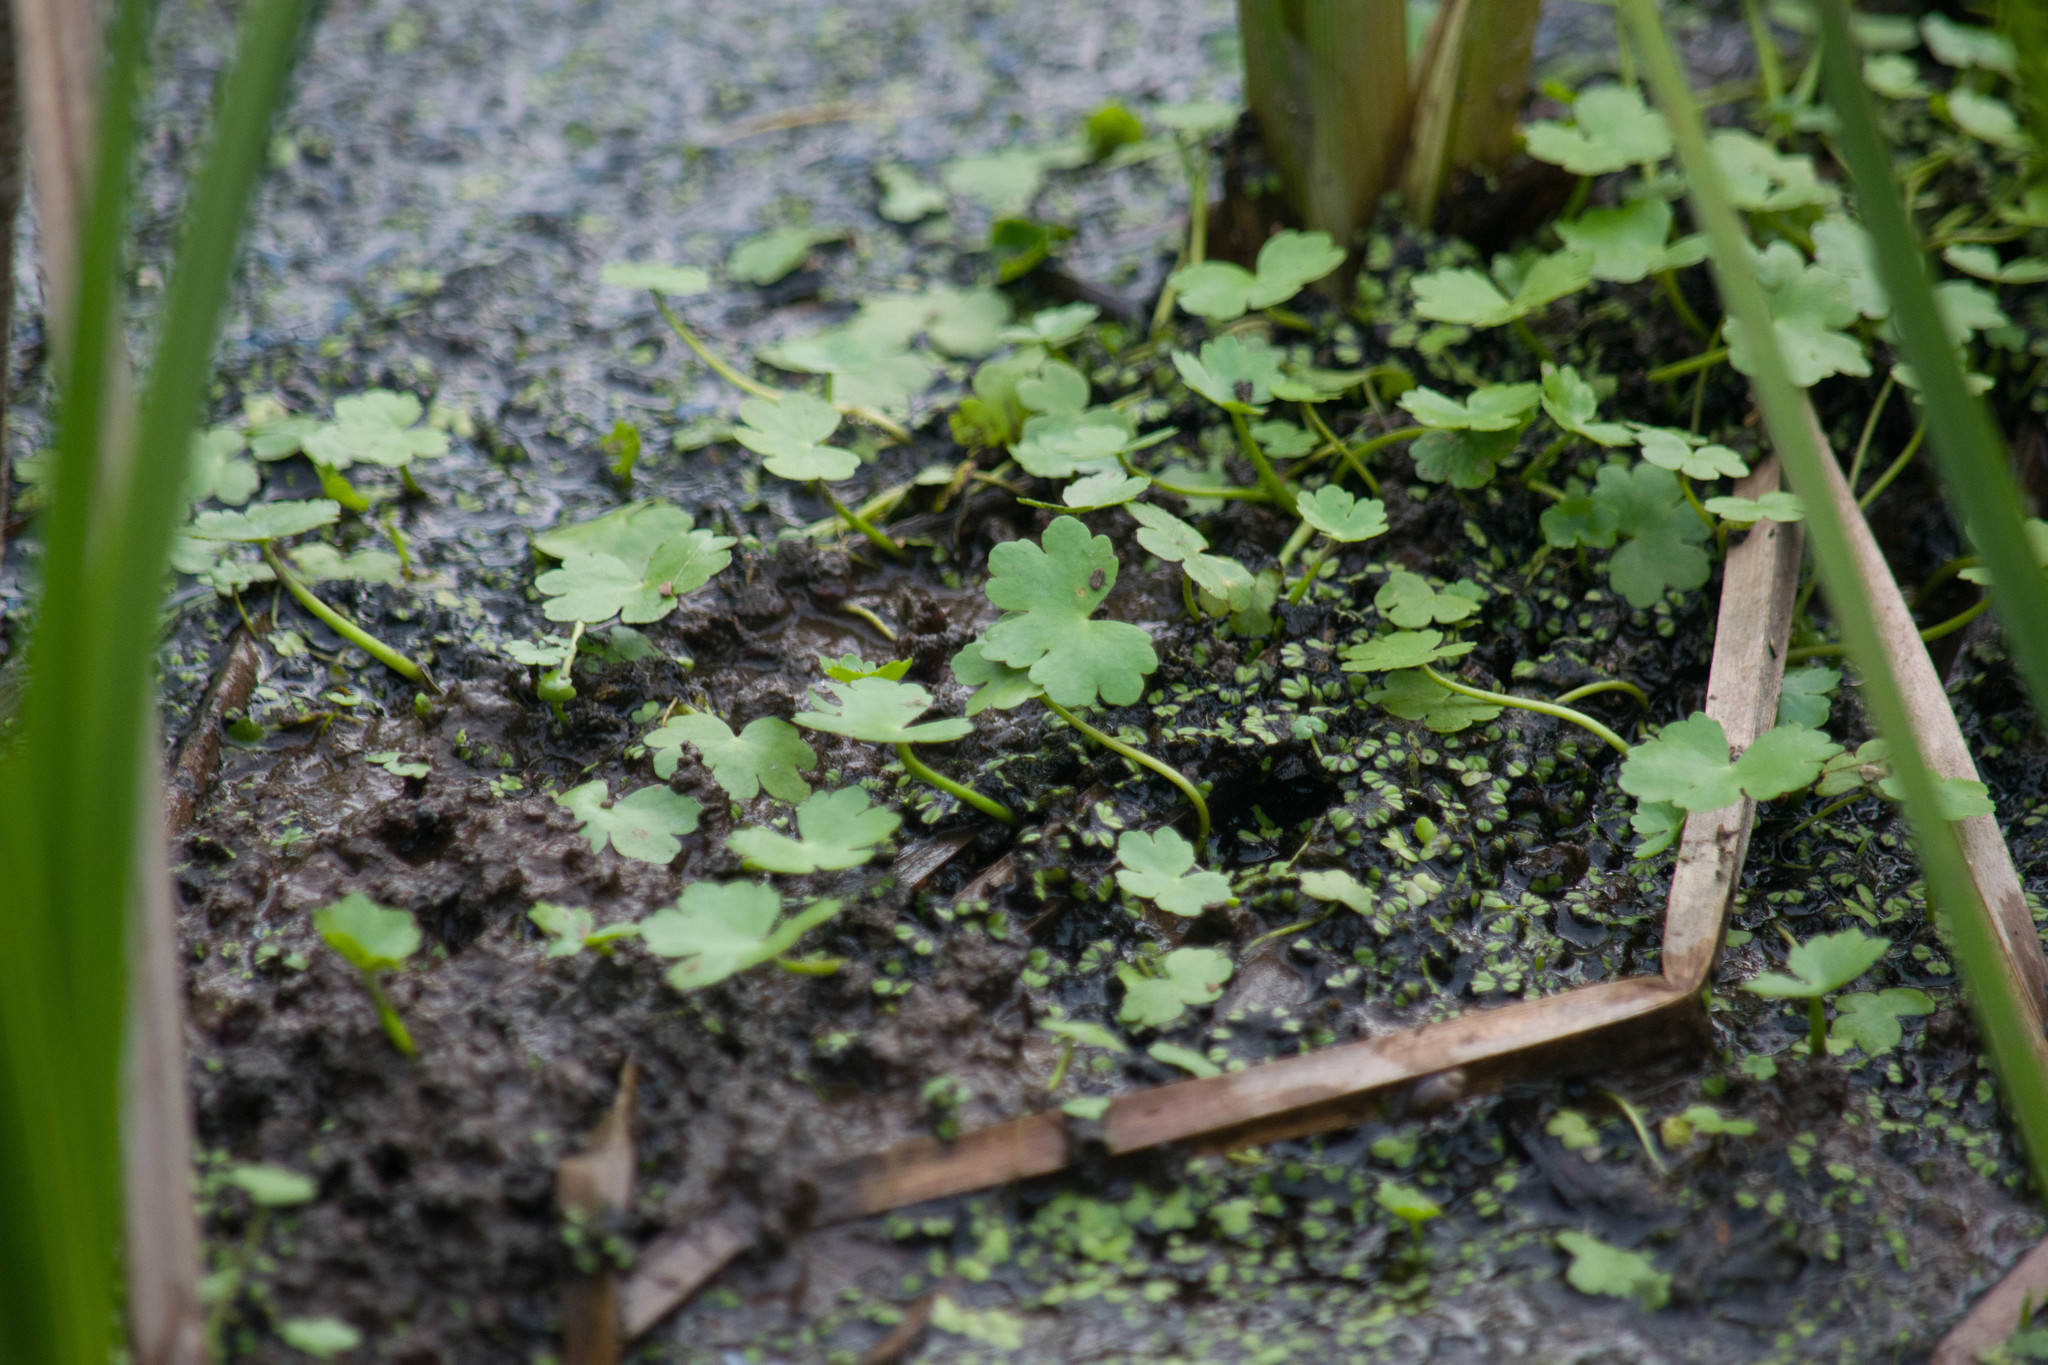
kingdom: Plantae
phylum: Tracheophyta
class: Magnoliopsida
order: Apiales
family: Araliaceae
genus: Hydrocotyle
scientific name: Hydrocotyle ranunculoides
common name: Floating pennywort
